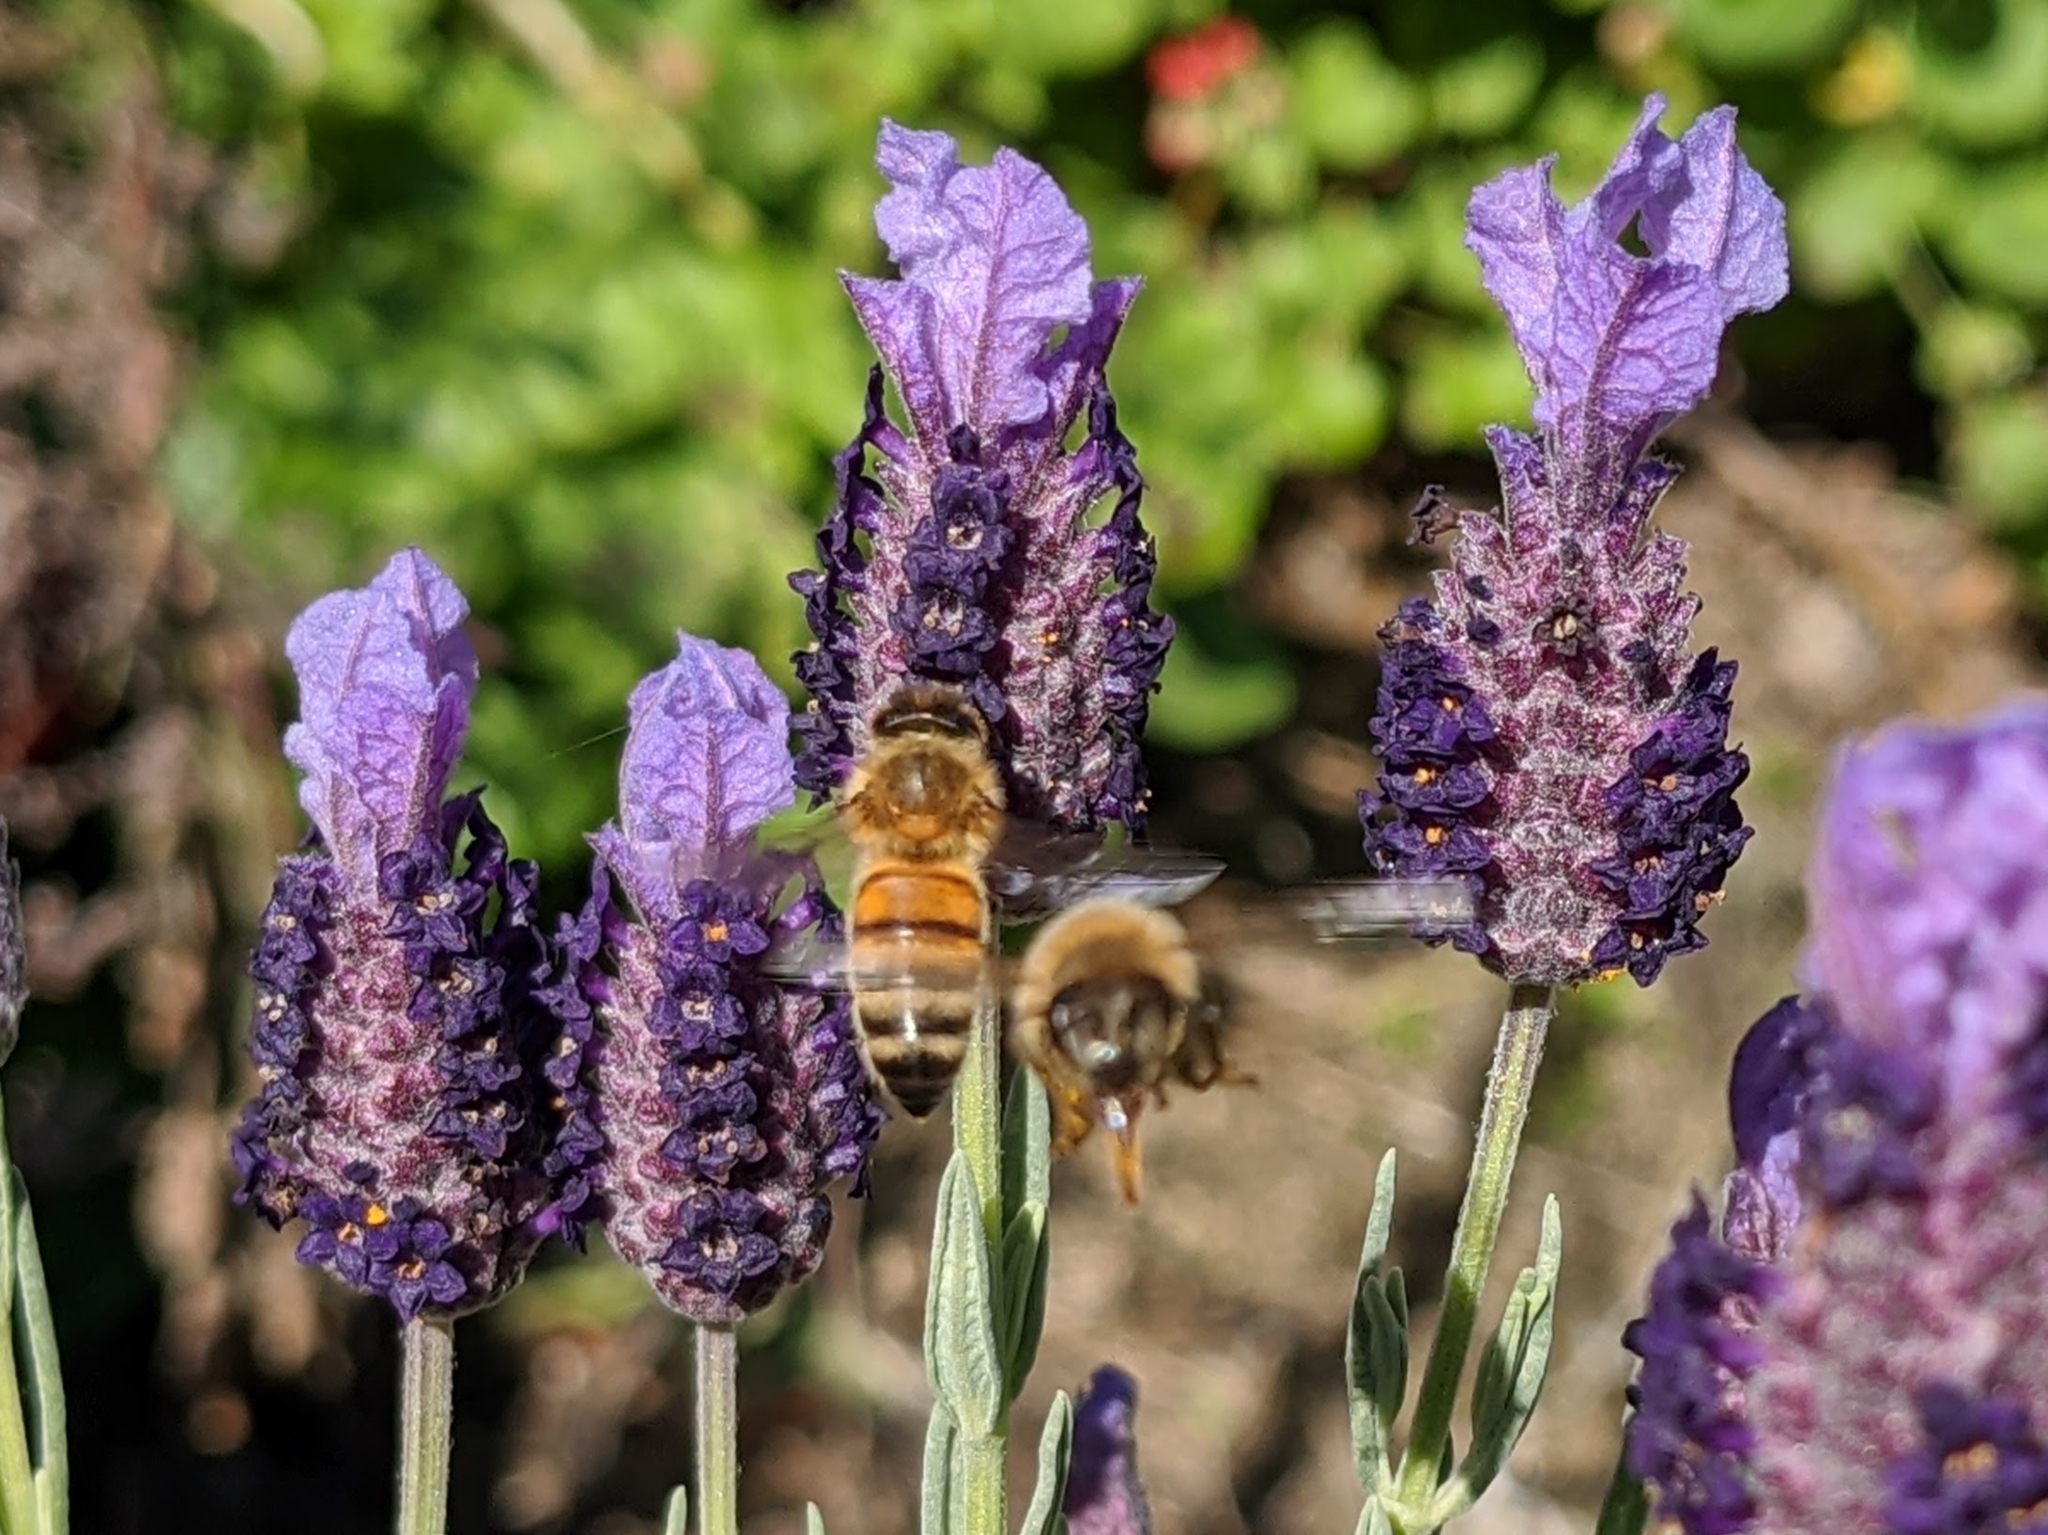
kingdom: Animalia
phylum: Arthropoda
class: Insecta
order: Hymenoptera
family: Apidae
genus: Apis
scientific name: Apis mellifera
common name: Honey bee
